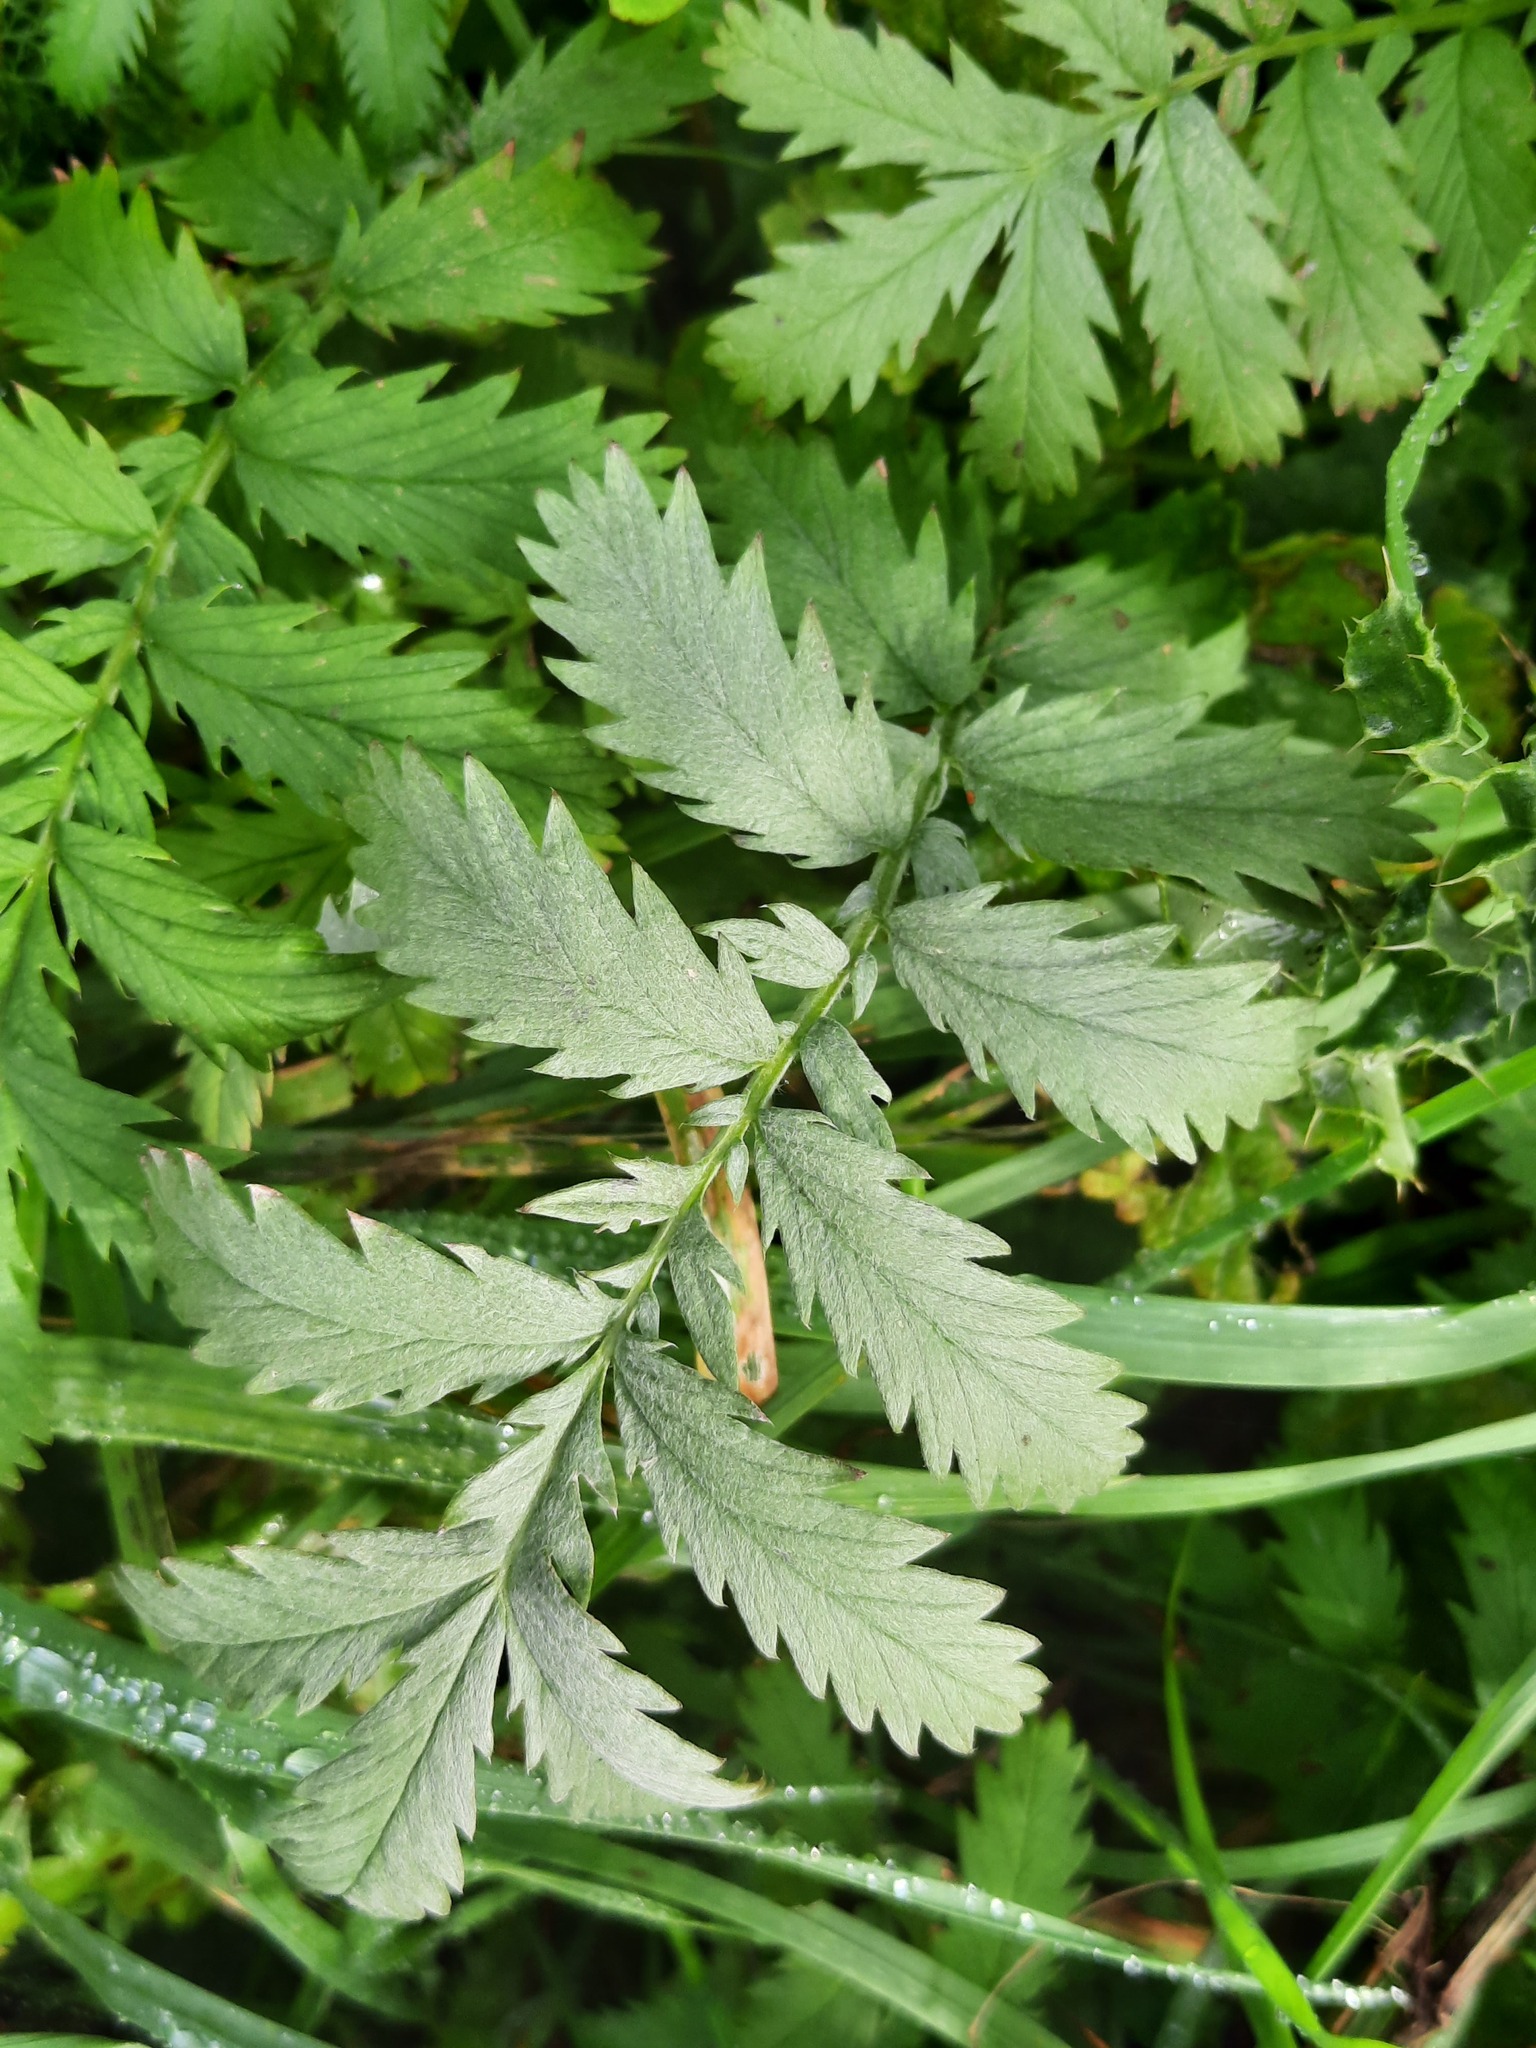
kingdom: Plantae
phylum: Tracheophyta
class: Magnoliopsida
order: Rosales
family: Rosaceae
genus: Argentina
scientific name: Argentina anserina
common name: Common silverweed
